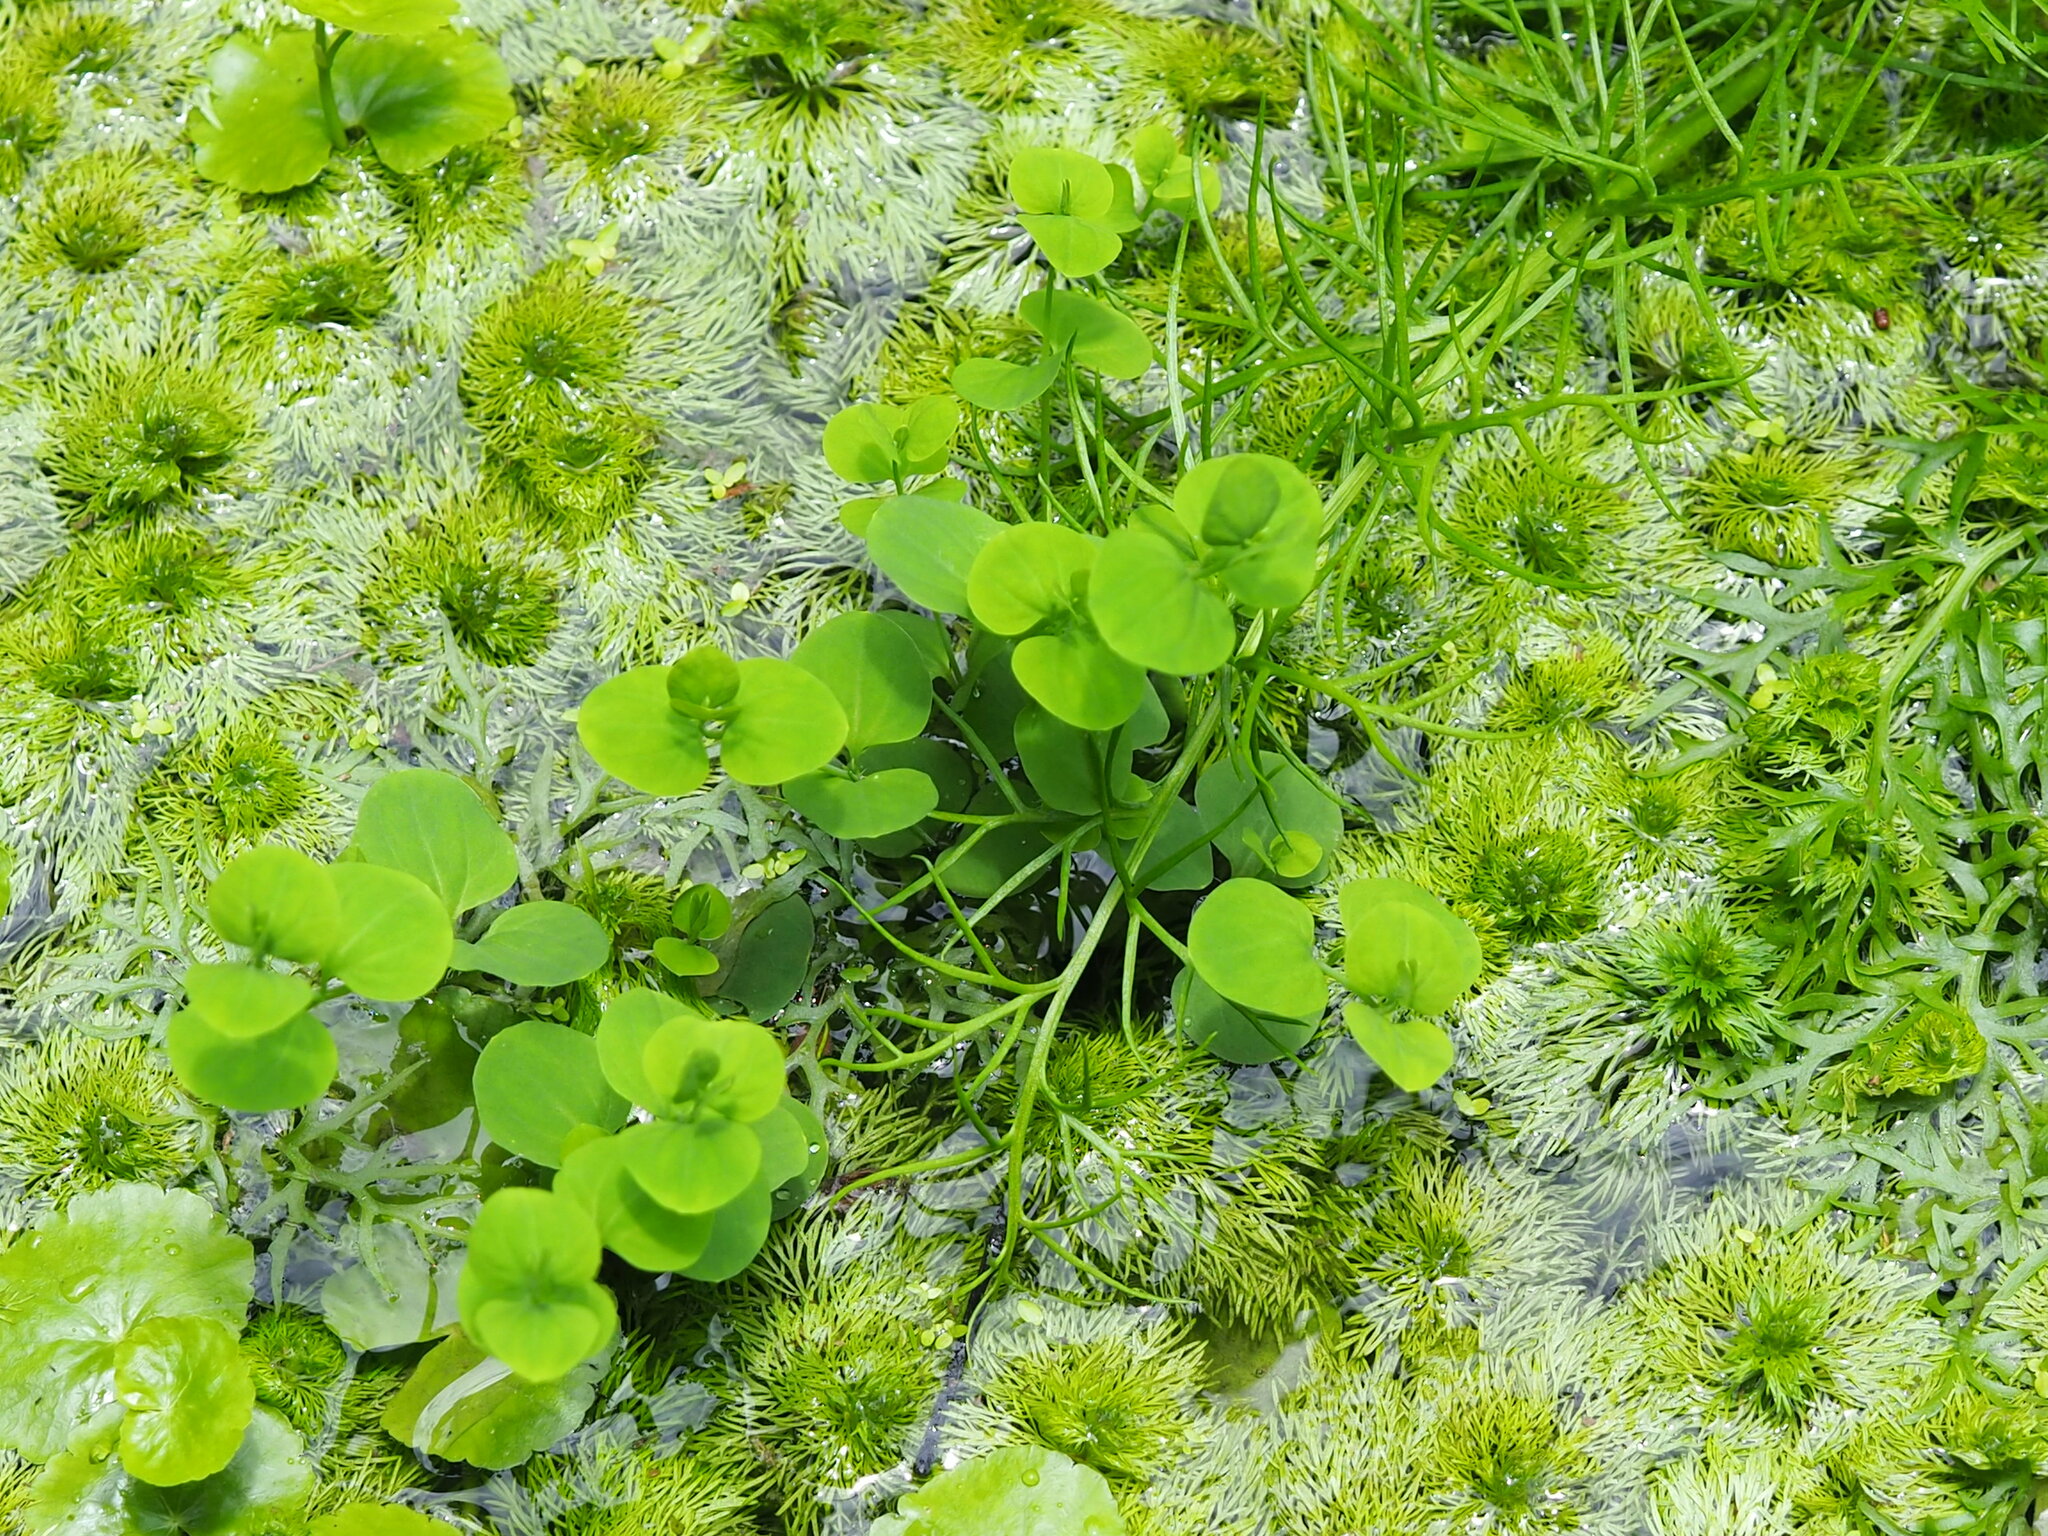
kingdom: Plantae
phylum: Tracheophyta
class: Magnoliopsida
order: Caryophyllales
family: Caryophyllaceae
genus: Drymaria
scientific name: Drymaria cordata
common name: Whitesnow
